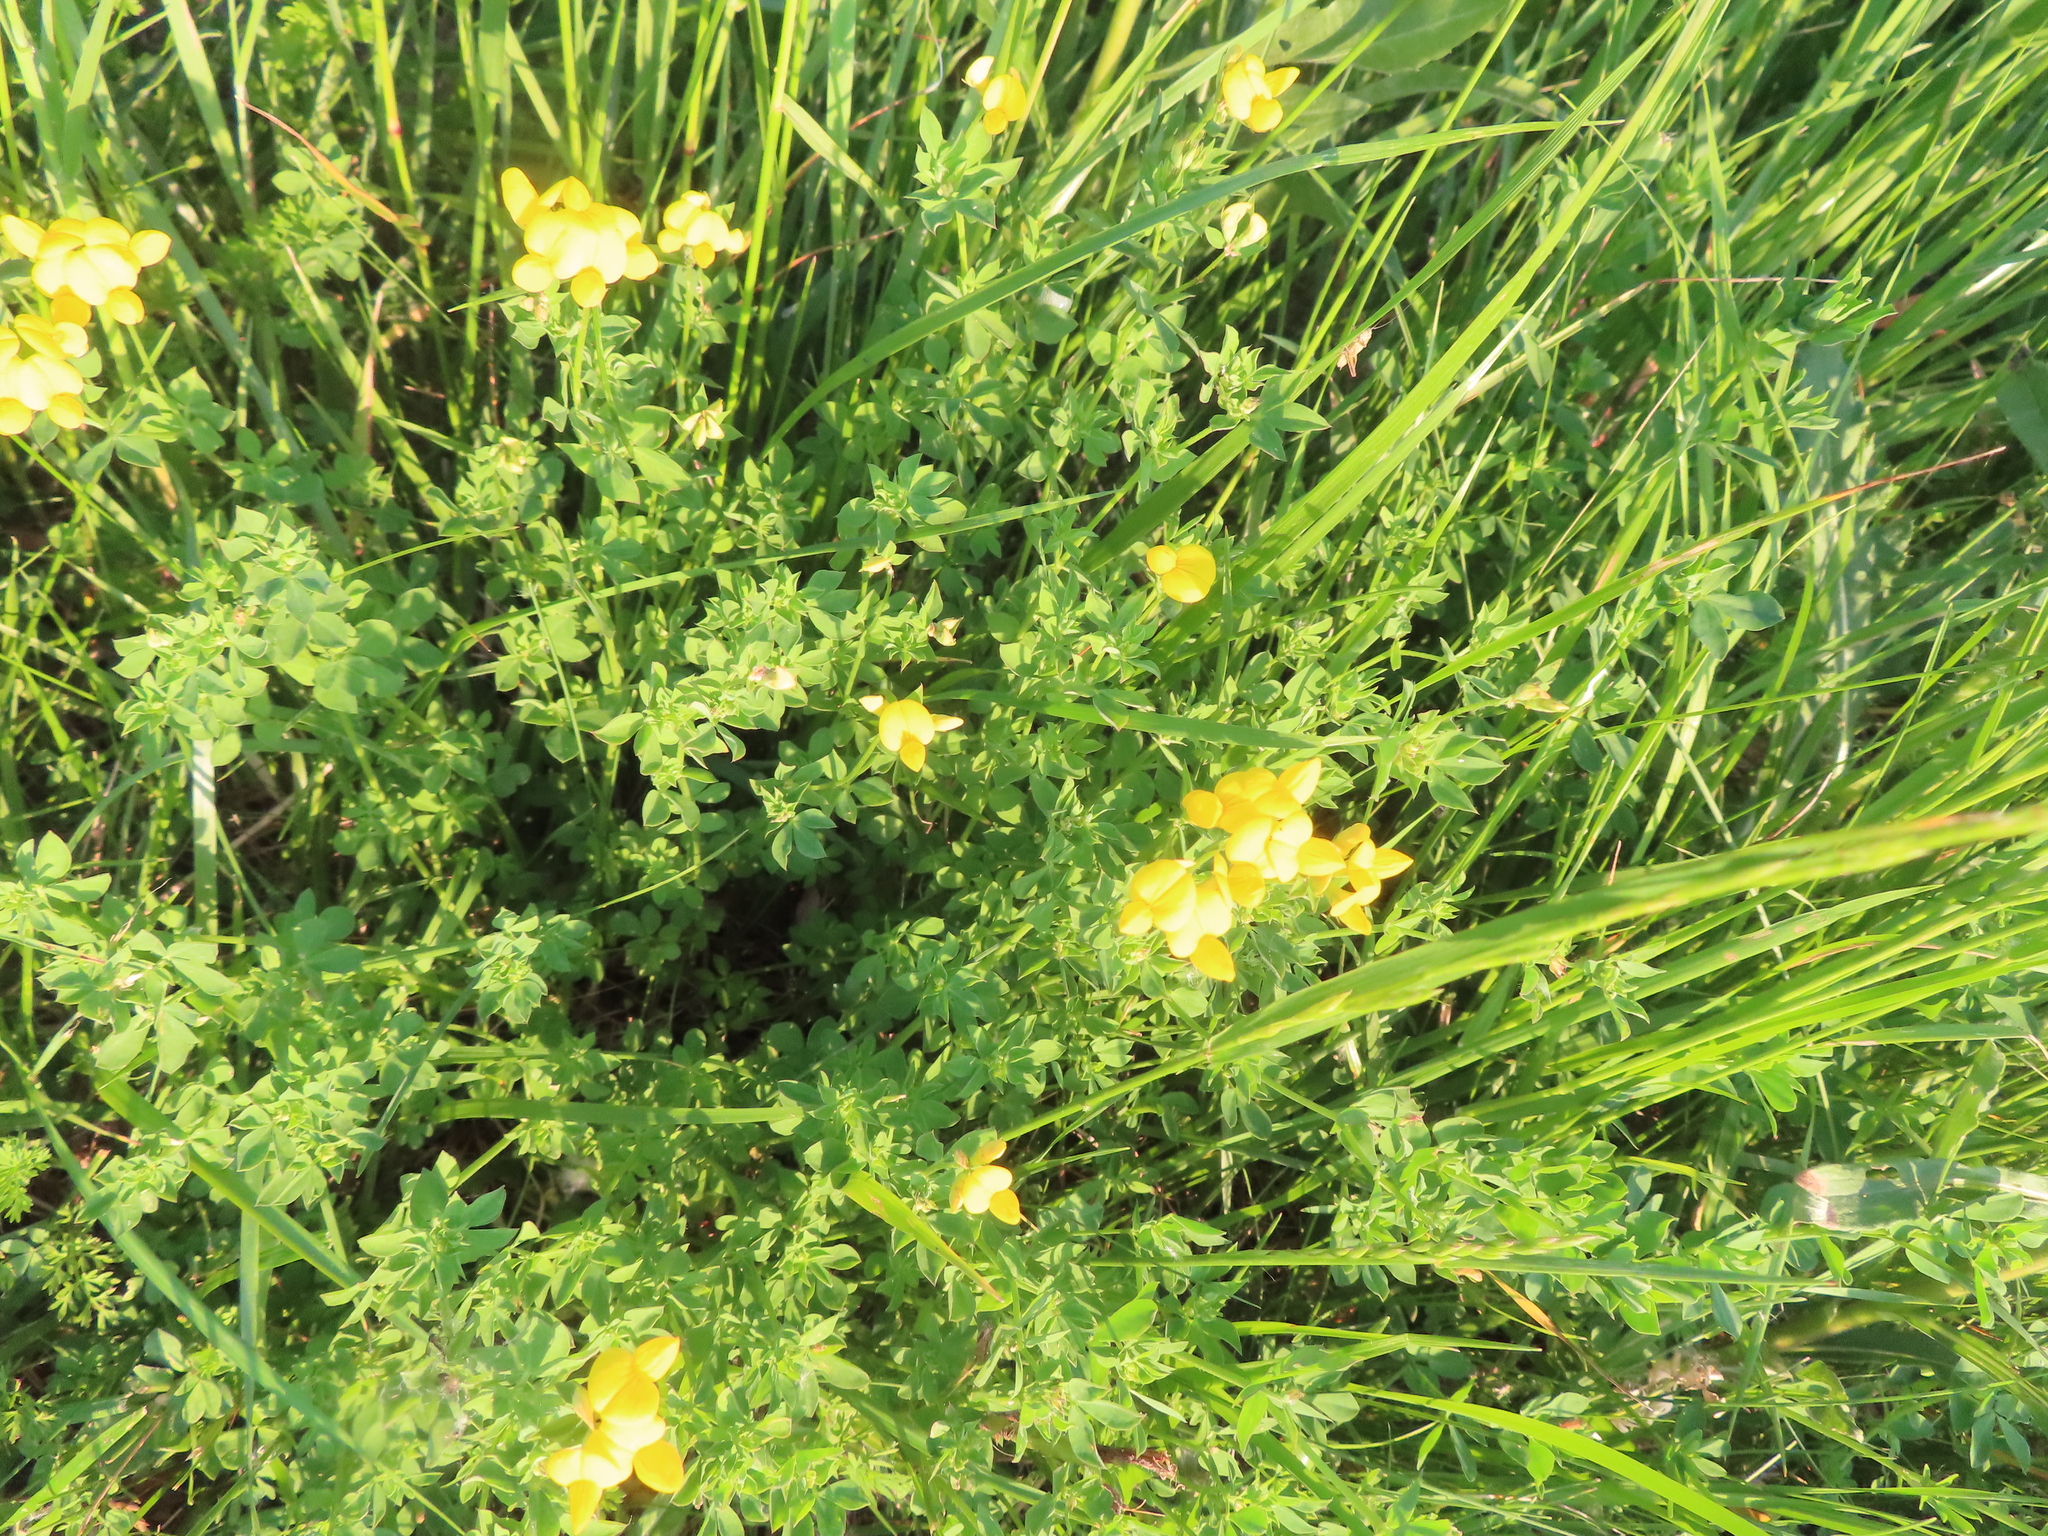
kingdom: Plantae
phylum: Tracheophyta
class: Magnoliopsida
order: Fabales
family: Fabaceae
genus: Lotus
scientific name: Lotus corniculatus
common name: Common bird's-foot-trefoil
